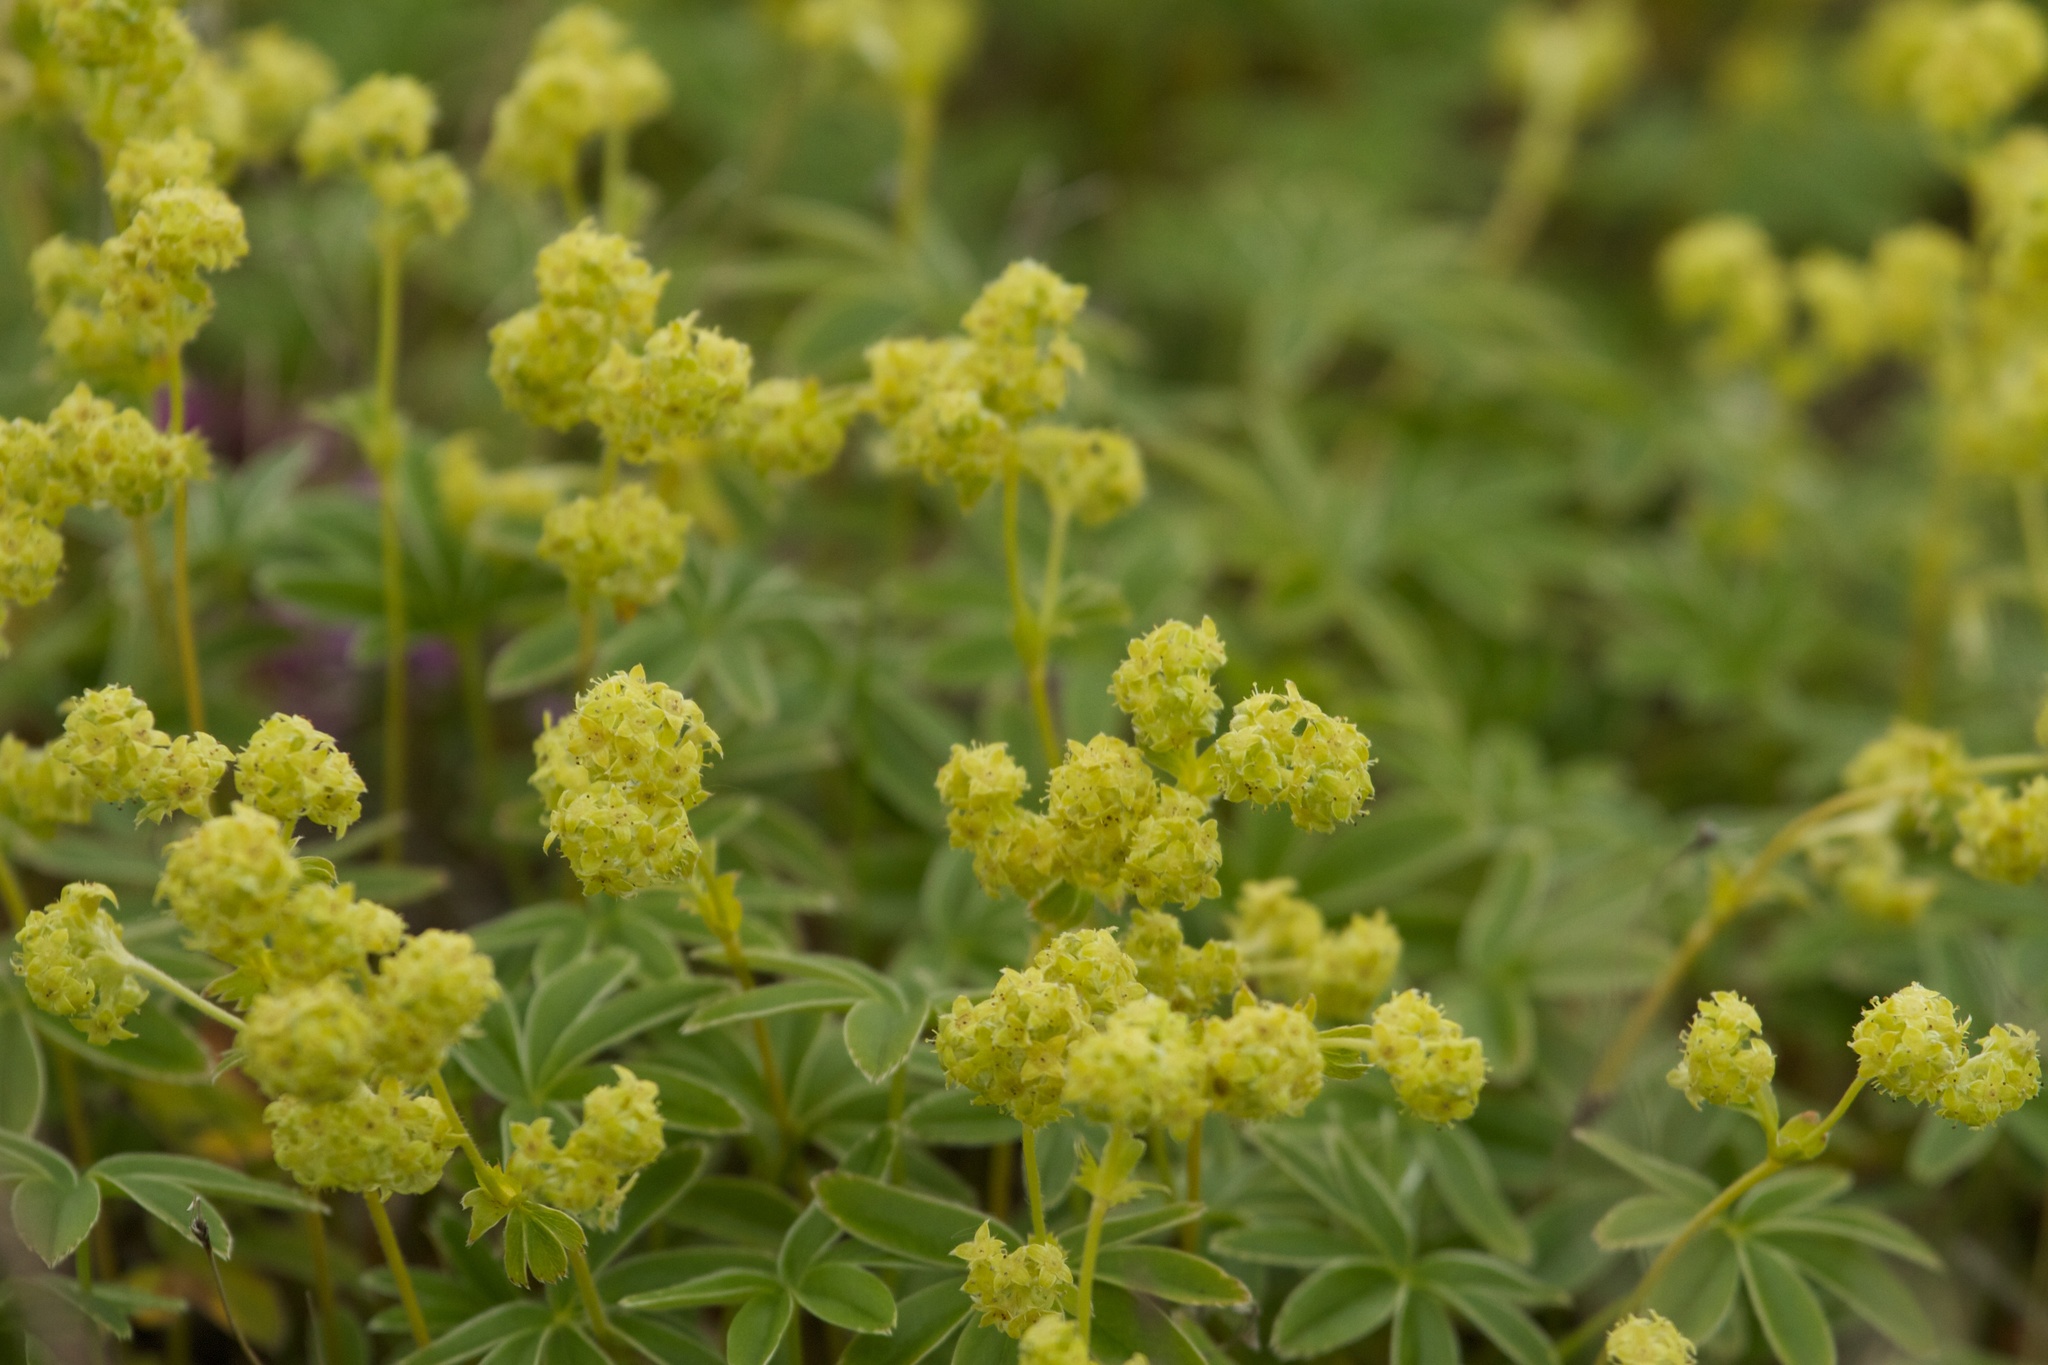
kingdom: Plantae
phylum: Tracheophyta
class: Magnoliopsida
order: Rosales
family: Rosaceae
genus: Alchemilla
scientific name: Alchemilla alpina
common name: Alpine lady's-mantle
